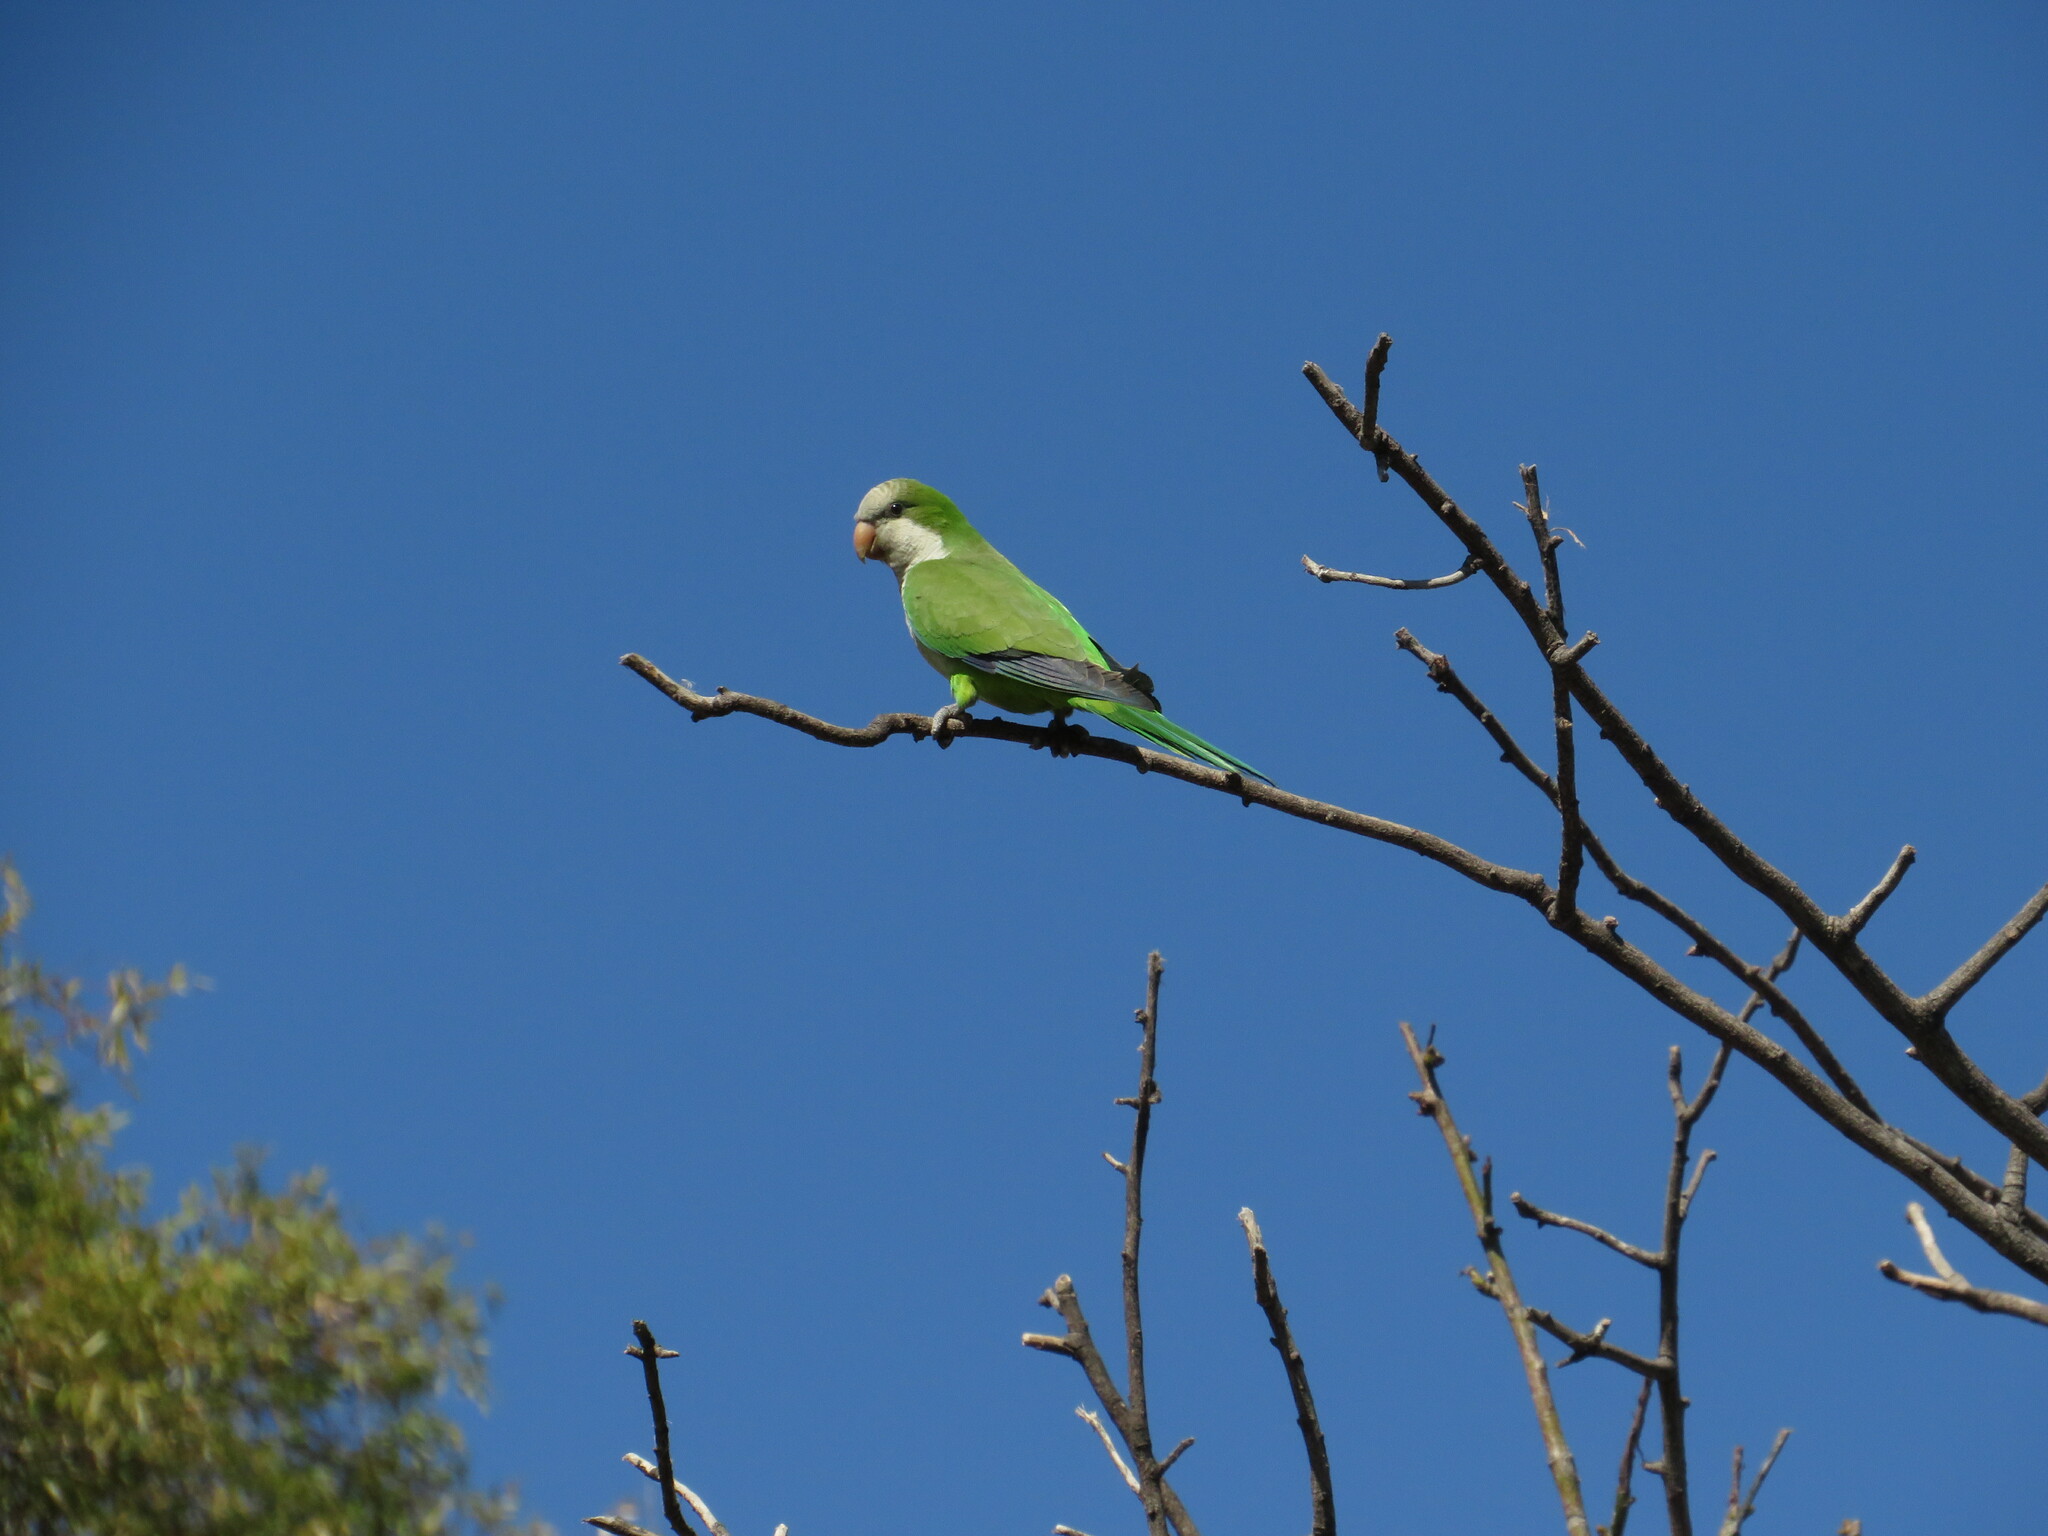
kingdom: Animalia
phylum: Chordata
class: Aves
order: Psittaciformes
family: Psittacidae
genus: Myiopsitta
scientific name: Myiopsitta monachus
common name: Monk parakeet
